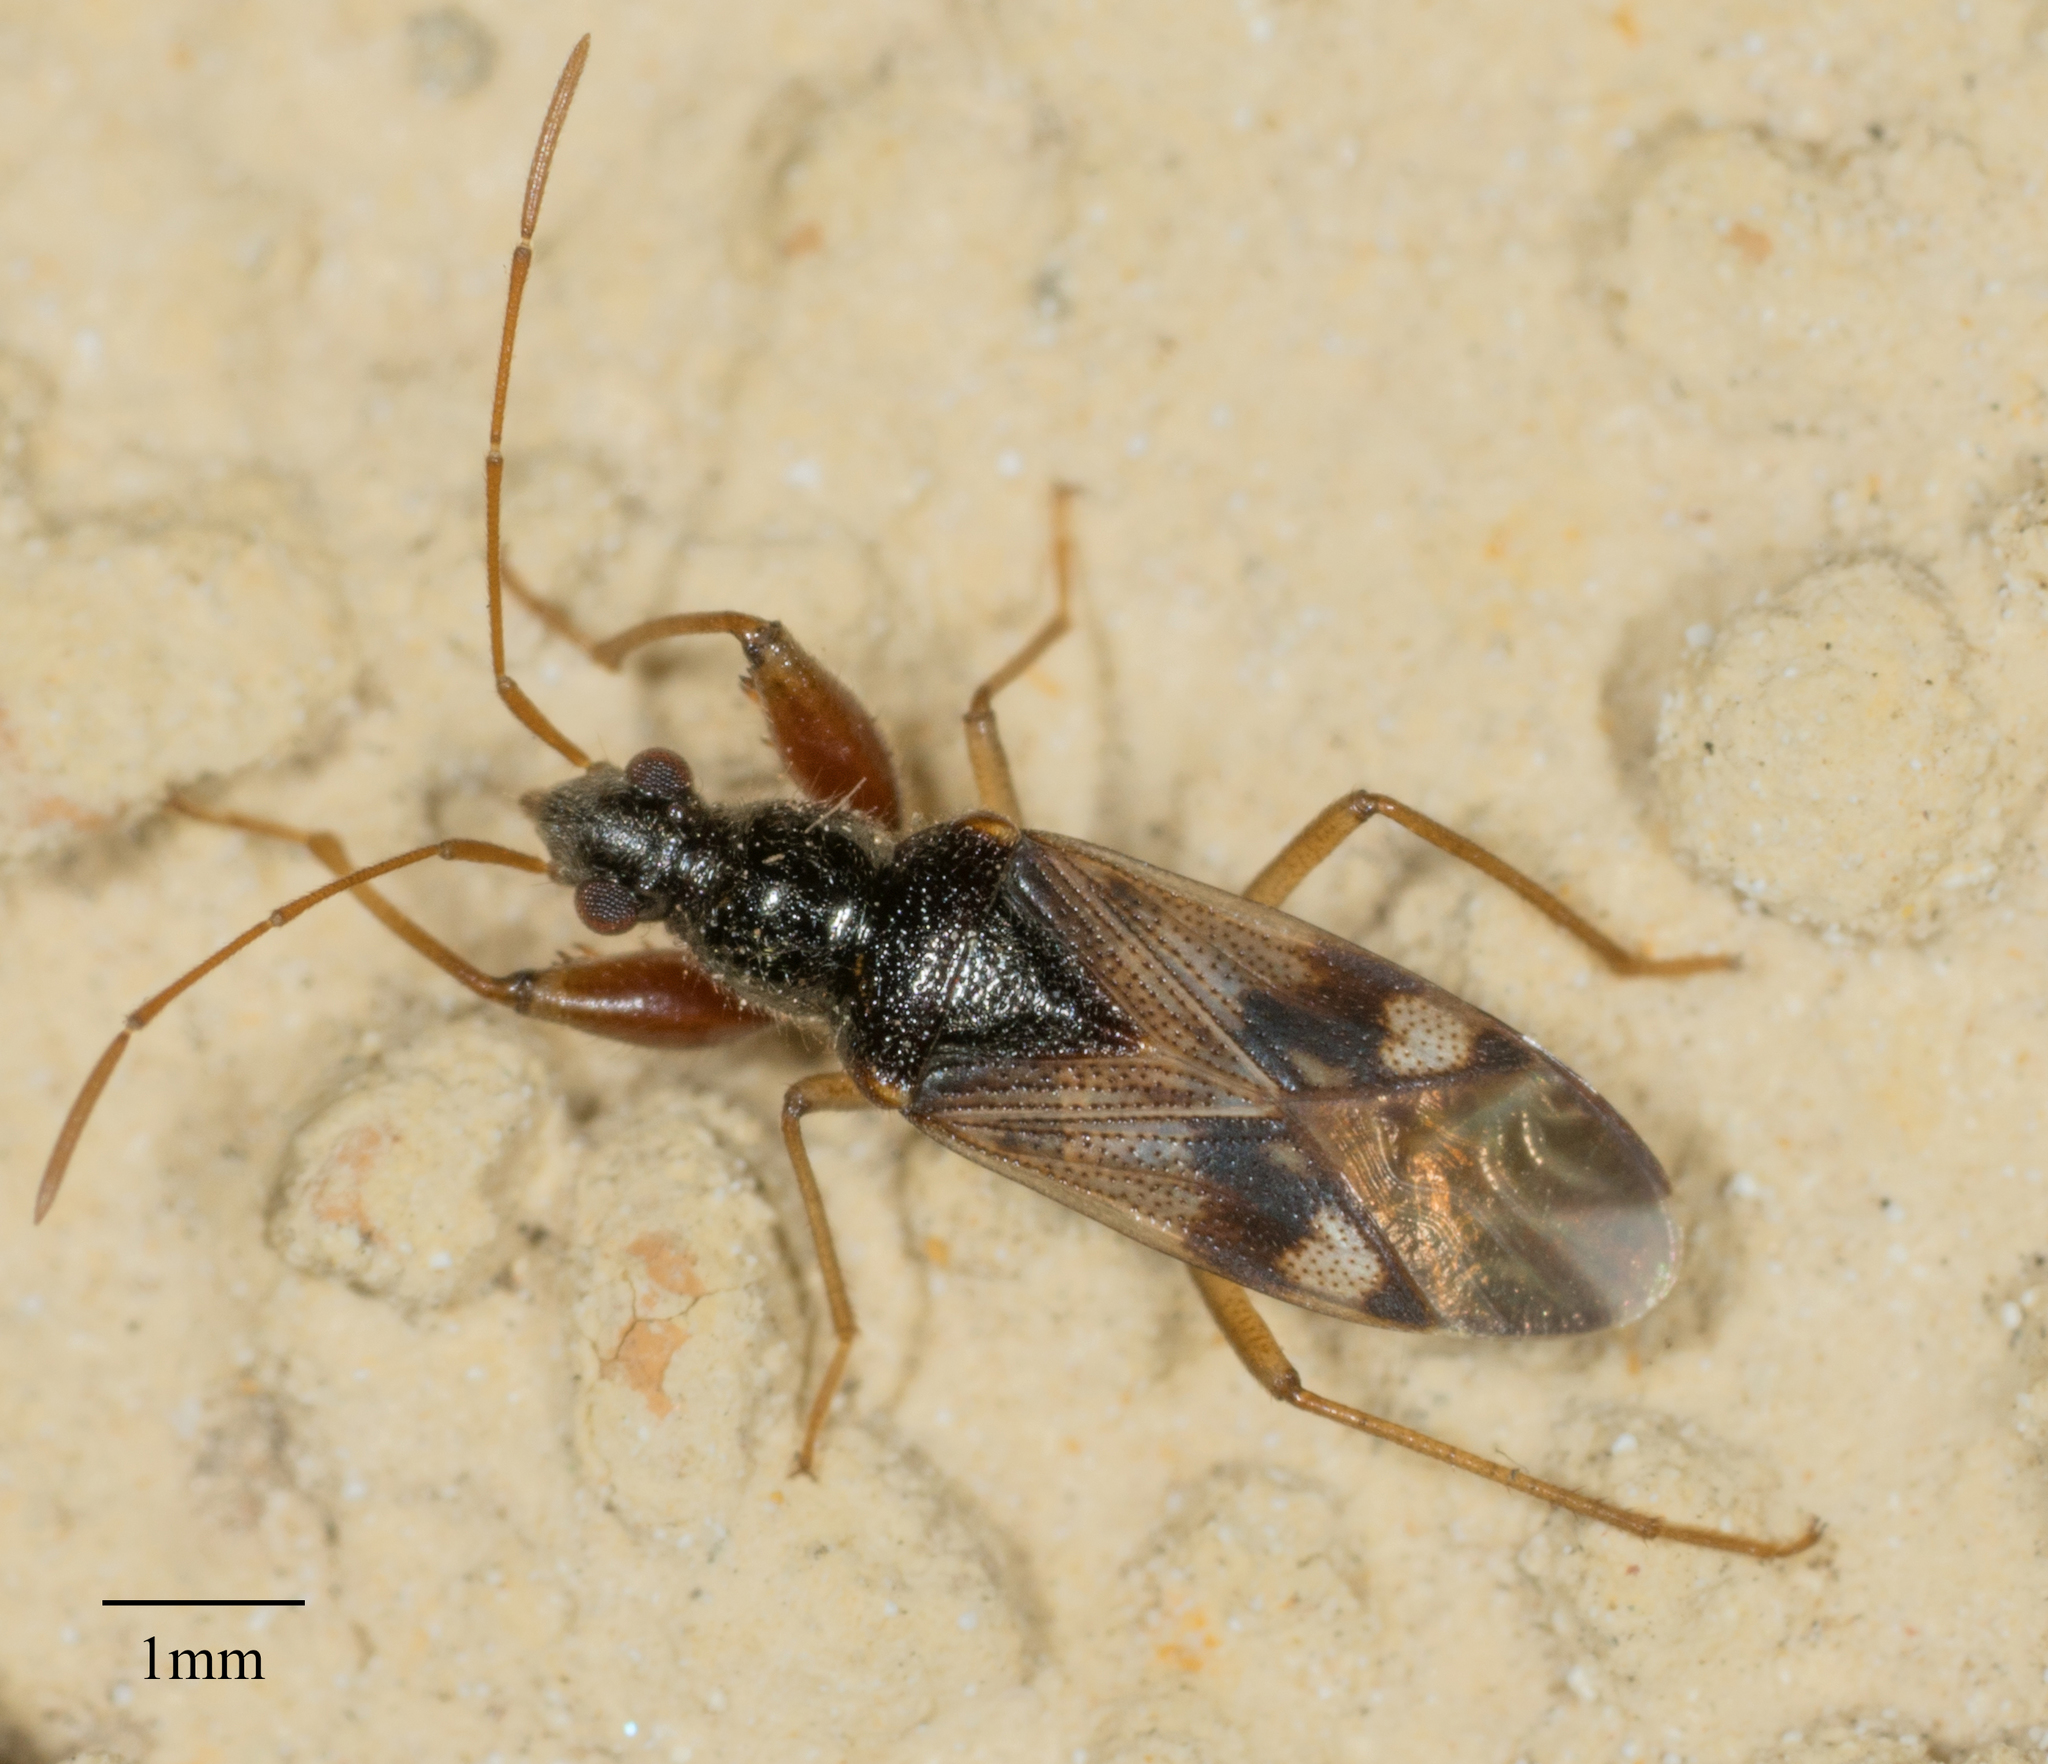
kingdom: Animalia
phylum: Arthropoda
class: Insecta
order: Hemiptera
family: Rhyparochromidae
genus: Pseudopamera
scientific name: Pseudopamera nitidula
